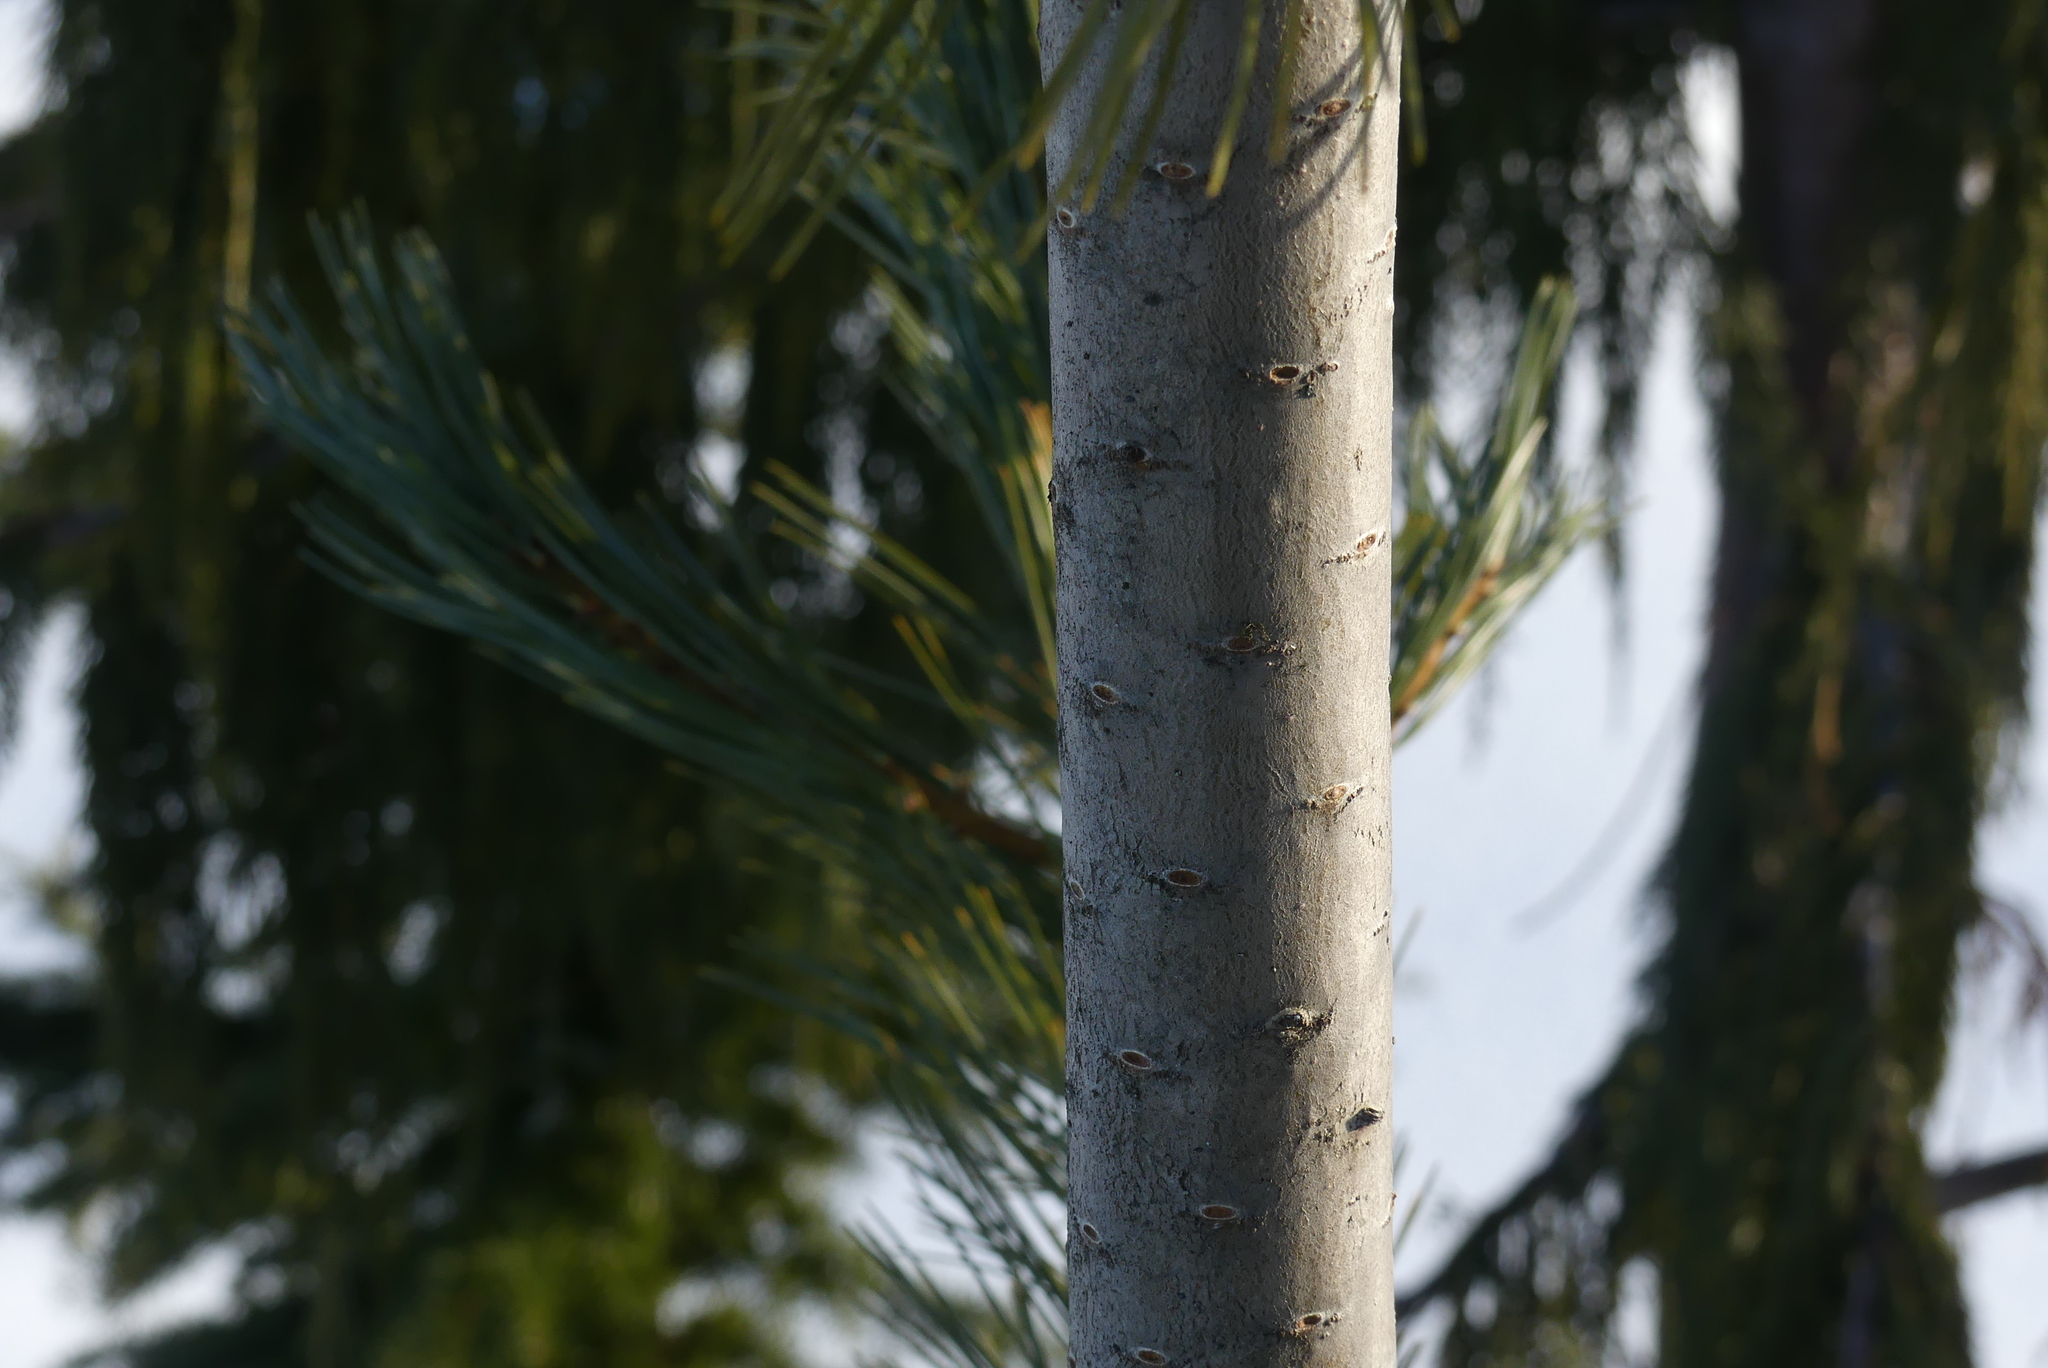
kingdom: Plantae
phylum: Tracheophyta
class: Pinopsida
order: Pinales
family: Pinaceae
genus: Pinus
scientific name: Pinus monticola
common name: Western white pine
